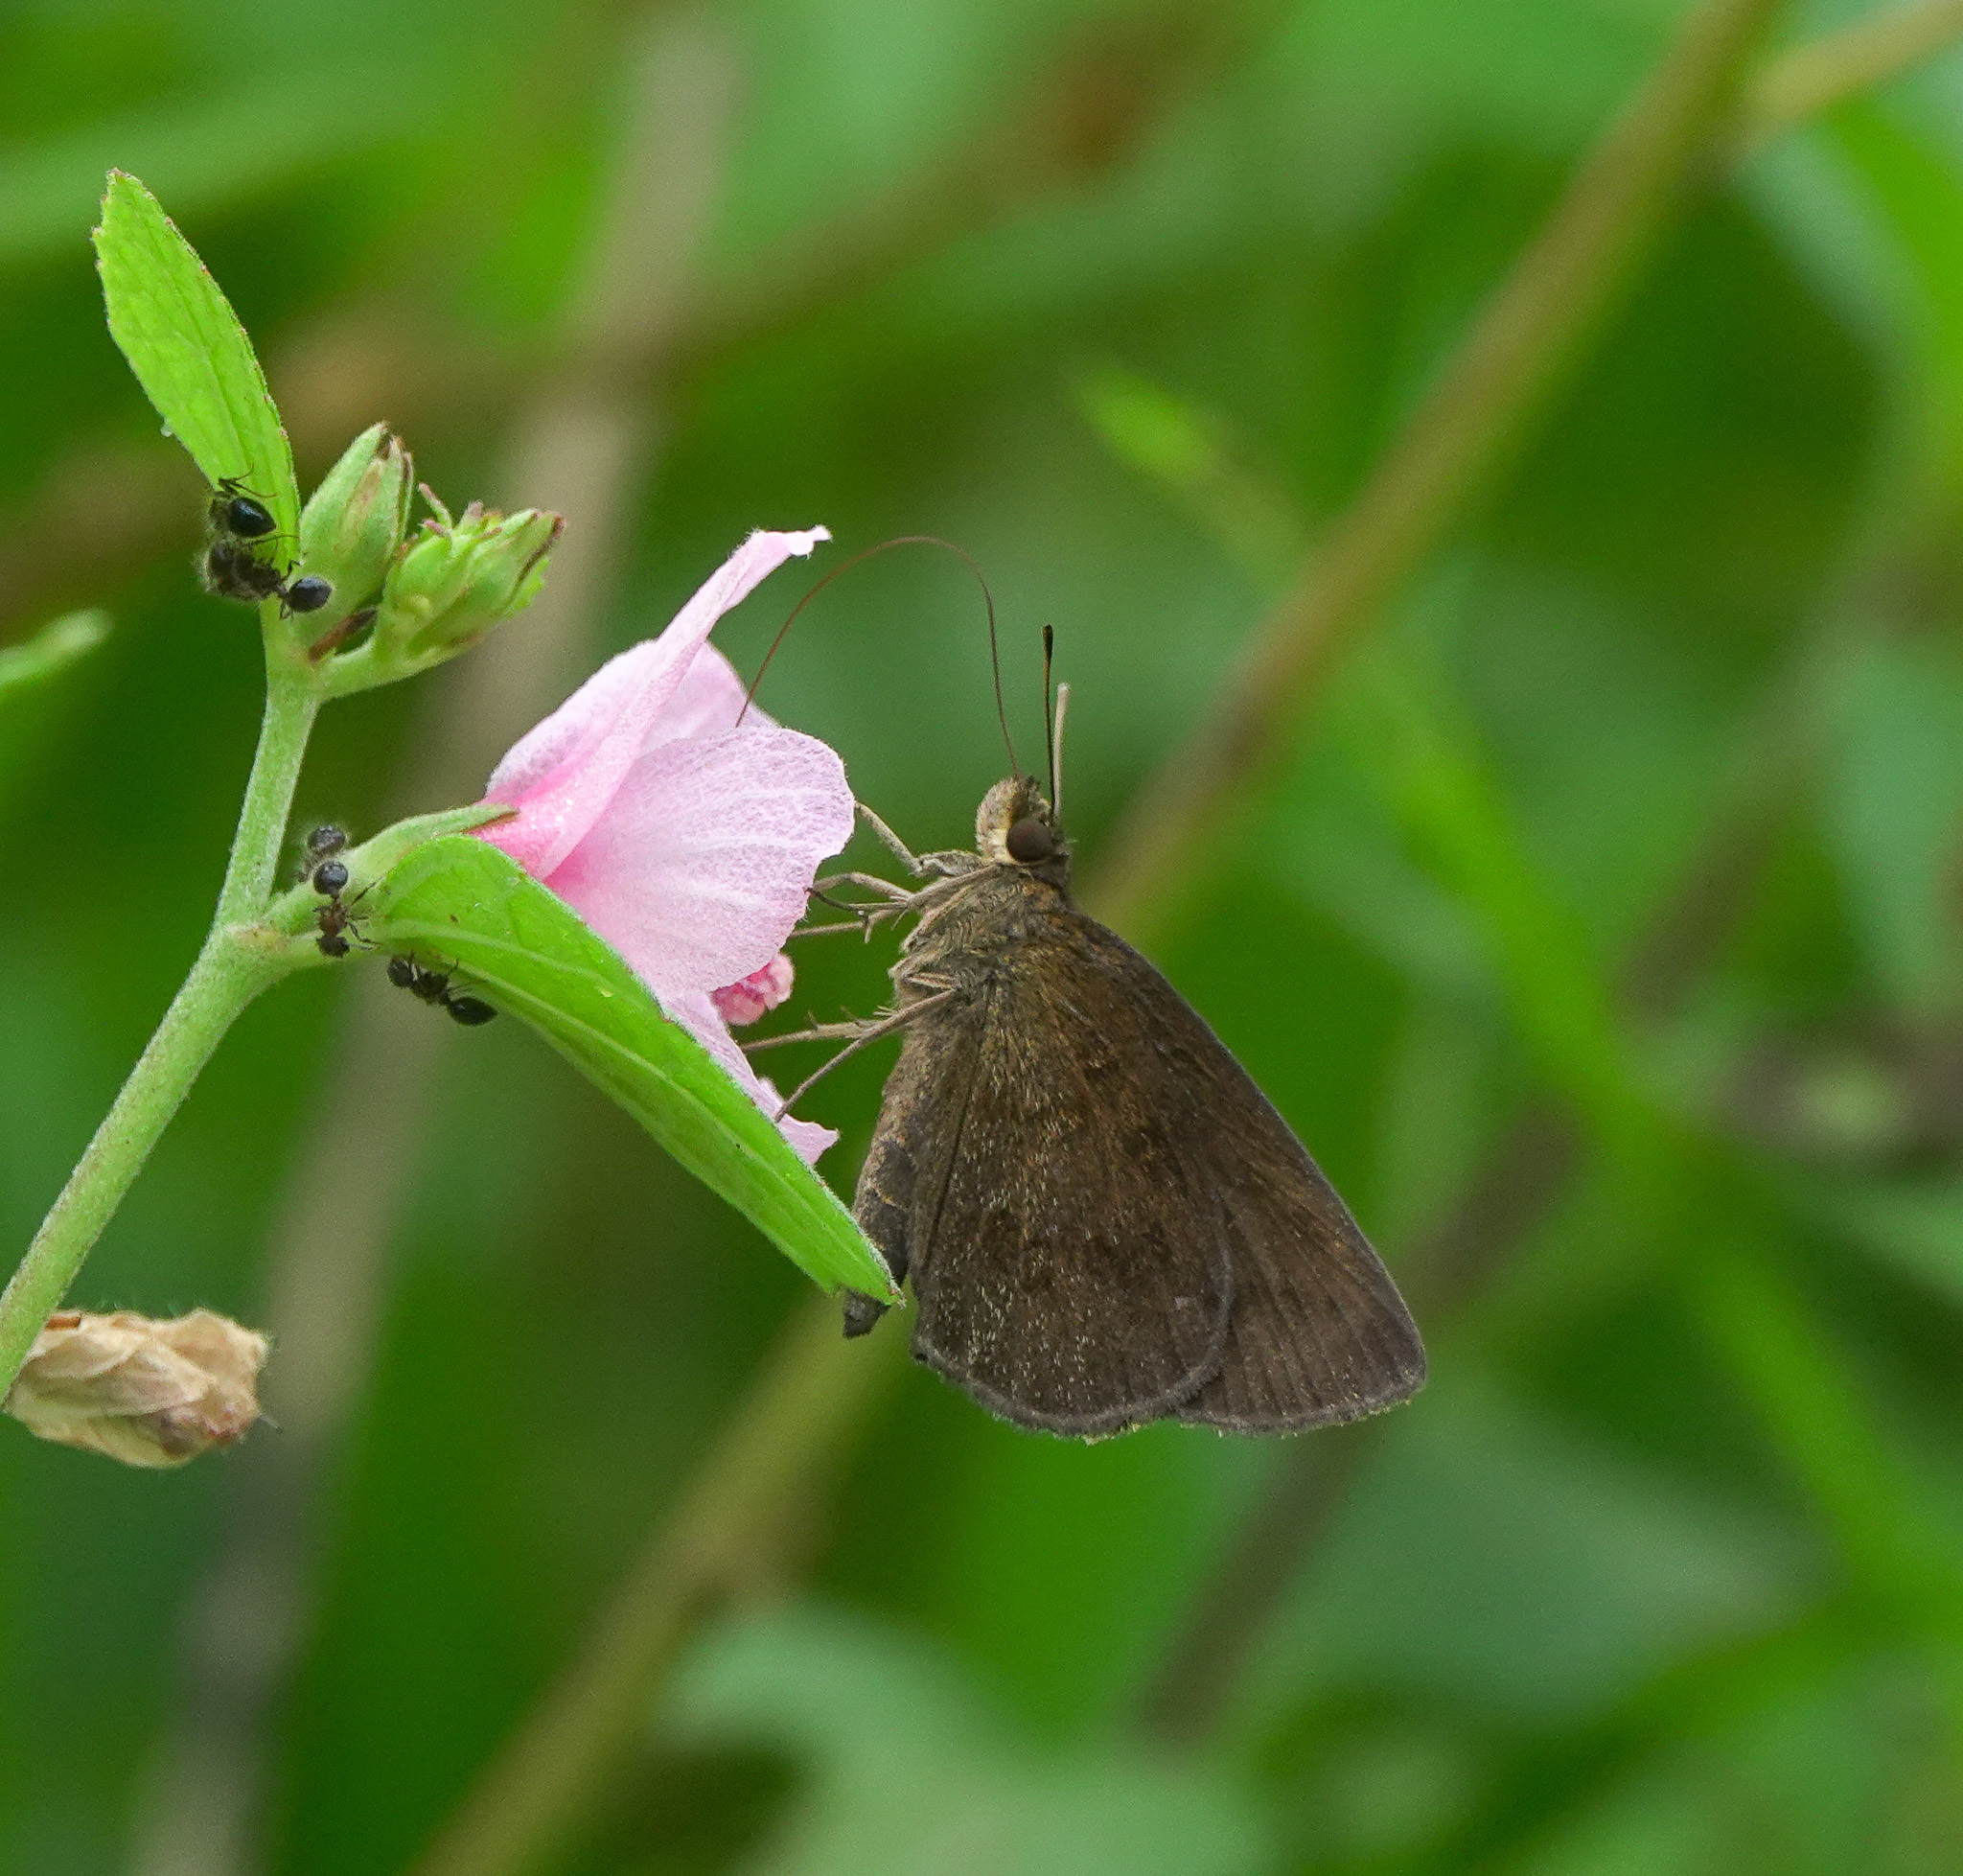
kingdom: Animalia
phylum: Arthropoda
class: Insecta
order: Lepidoptera
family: Hesperiidae
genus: Astictopterus
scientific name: Astictopterus jama
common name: Forest hopper
